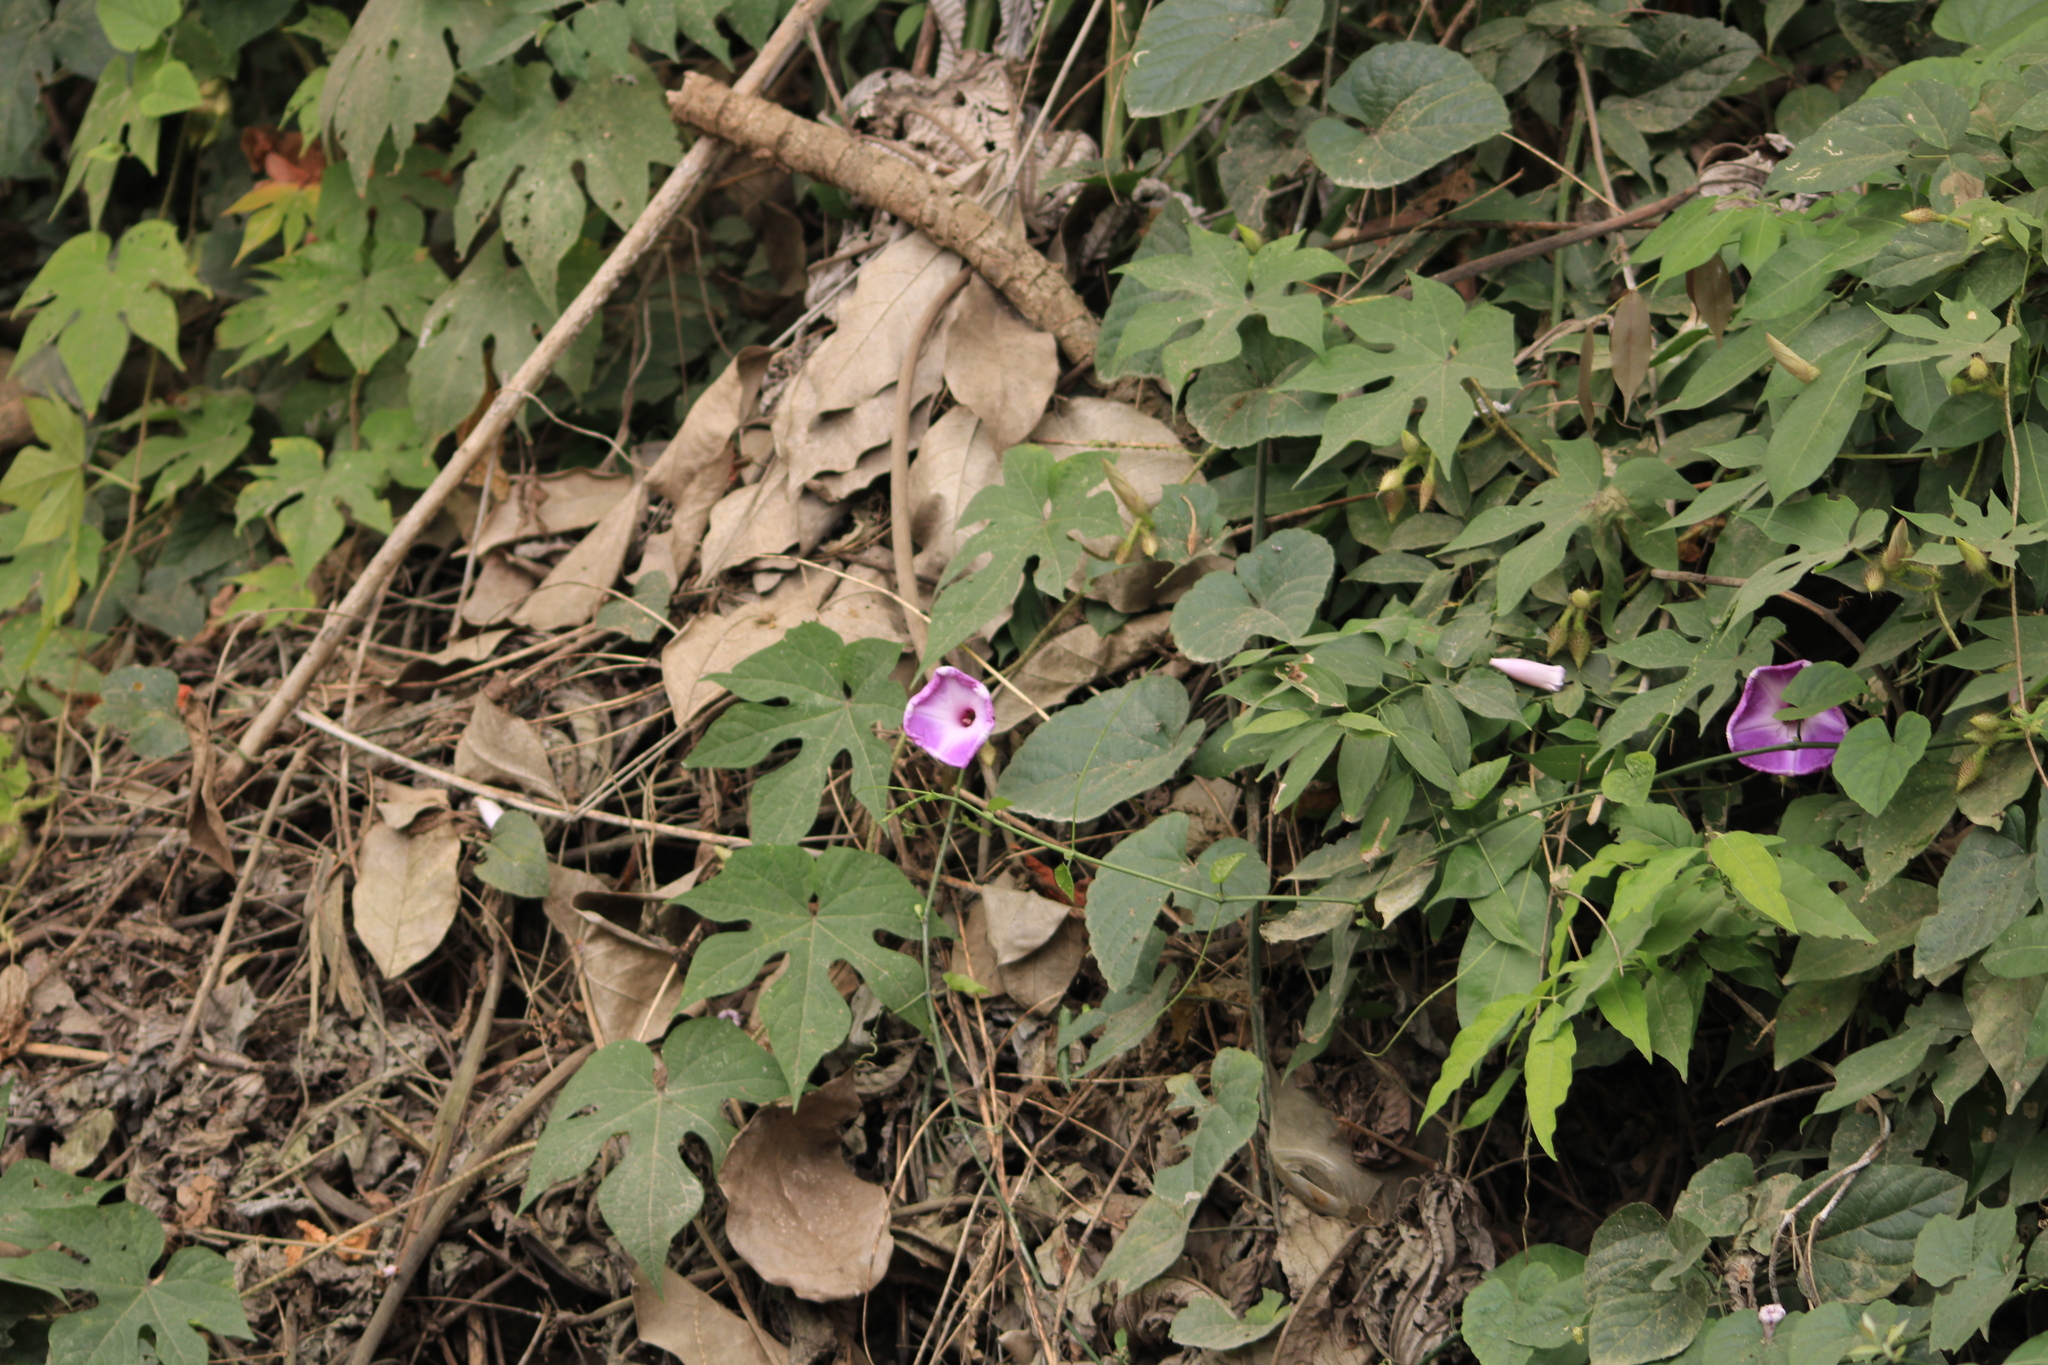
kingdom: Plantae
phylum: Tracheophyta
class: Magnoliopsida
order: Solanales
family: Convolvulaceae
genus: Ipomoea
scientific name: Ipomoea setosa
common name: Brazilian morning-glory
